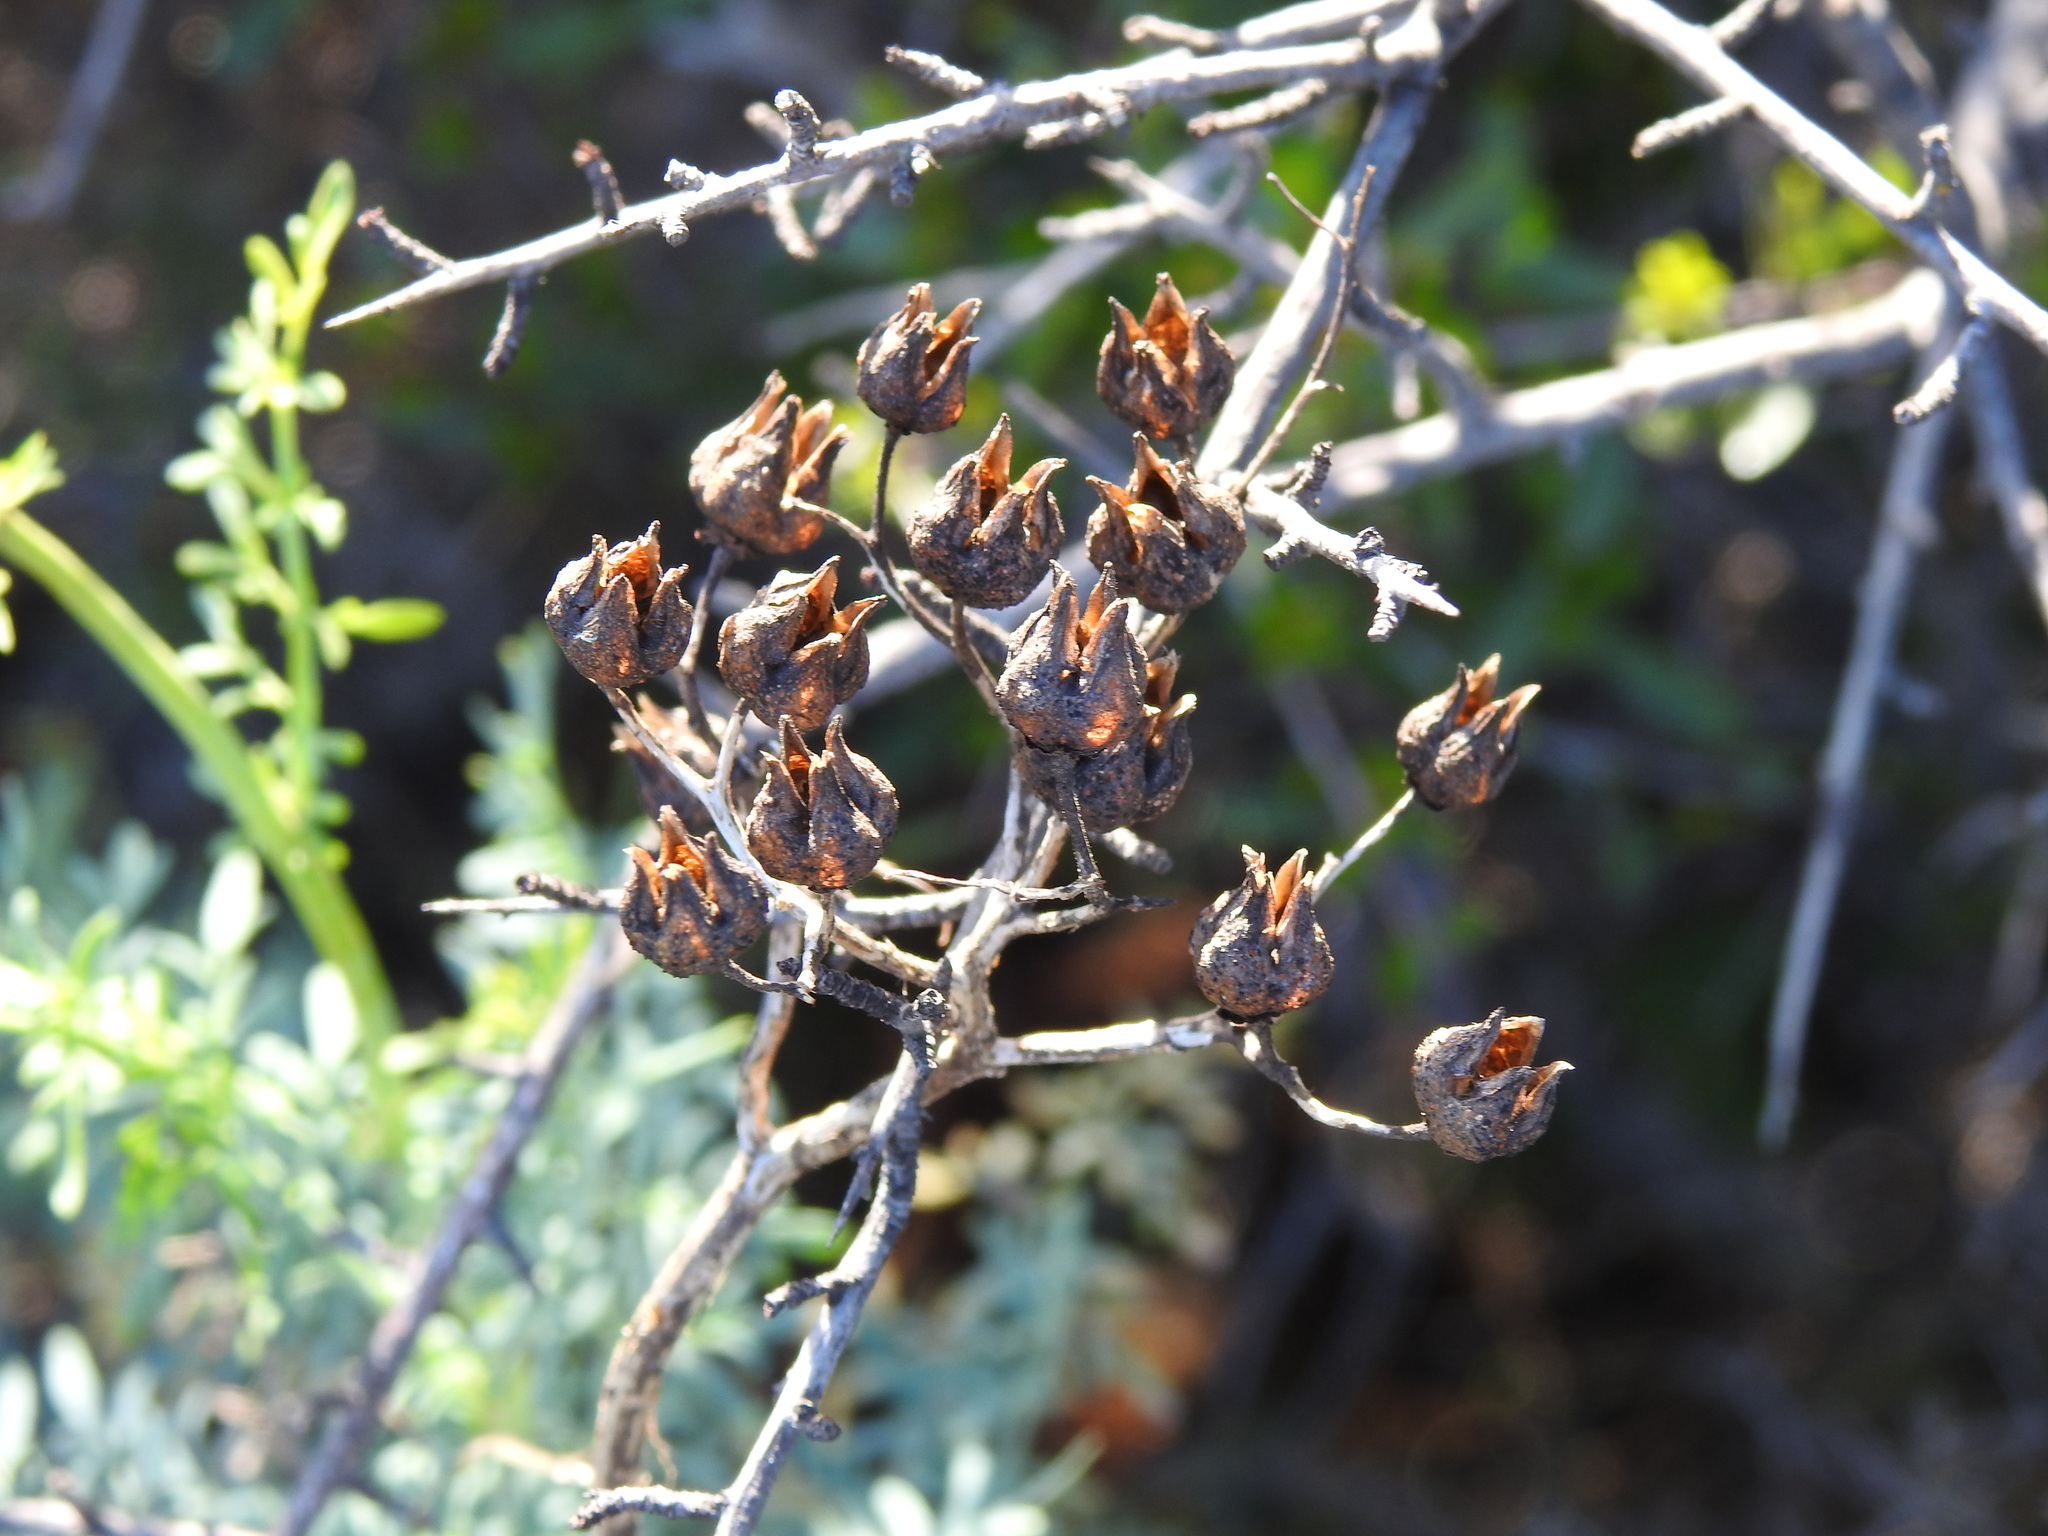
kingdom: Plantae
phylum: Tracheophyta
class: Magnoliopsida
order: Sapindales
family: Rutaceae
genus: Ruta
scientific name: Ruta chalepensis
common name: Fringed rue
